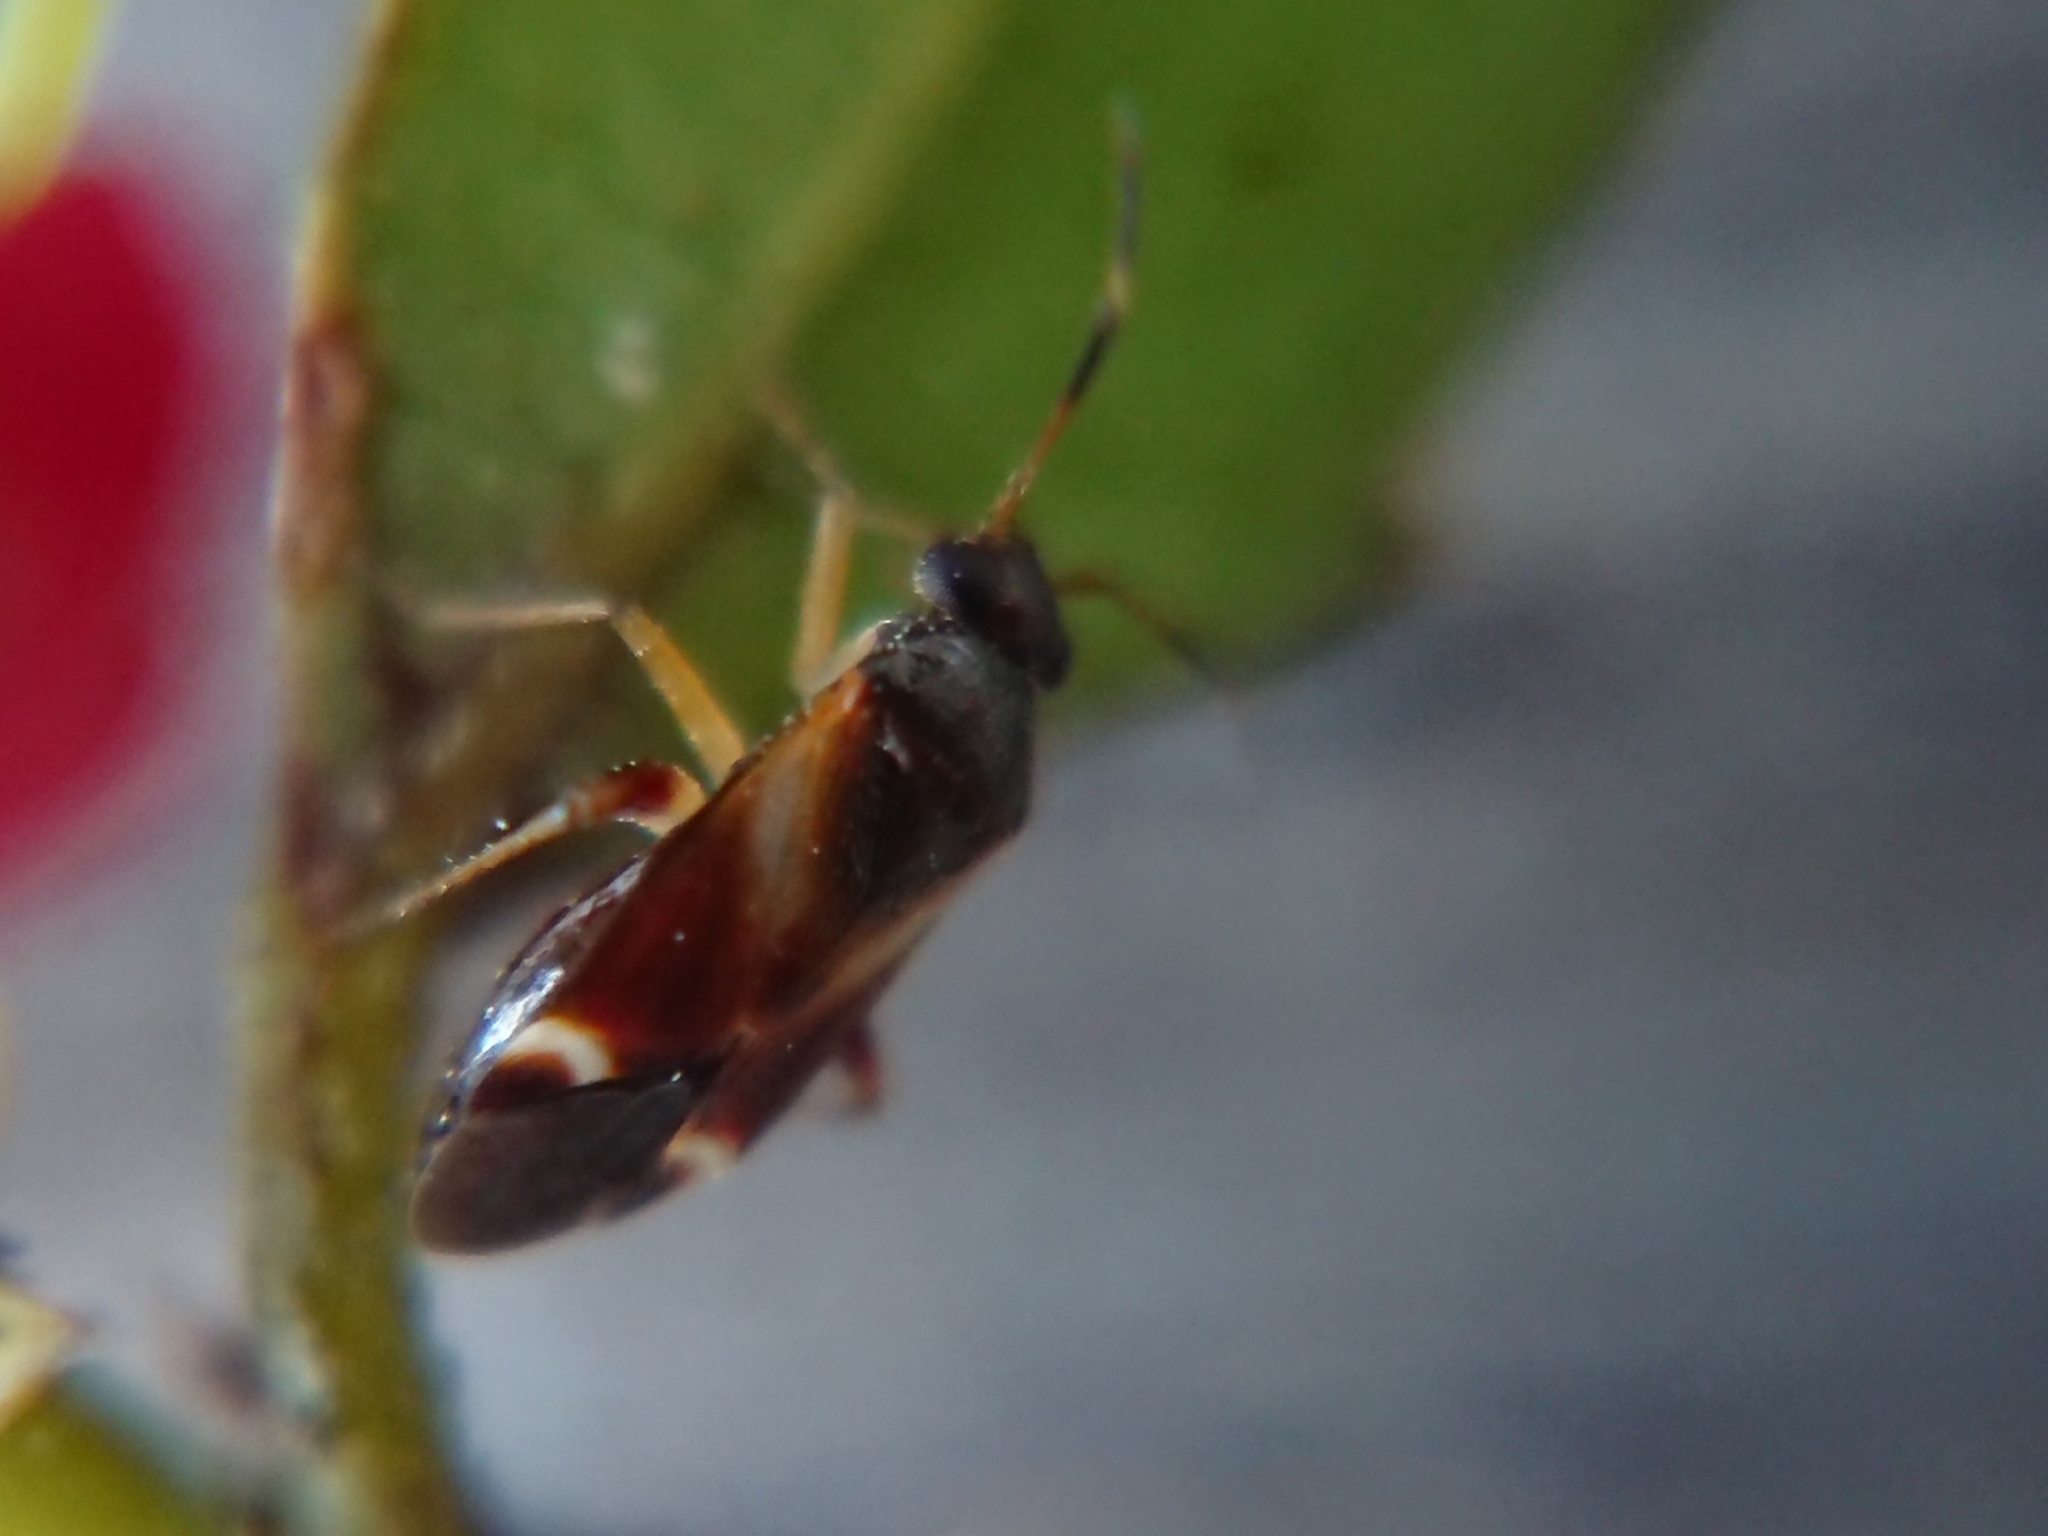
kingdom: Animalia
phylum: Arthropoda
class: Insecta
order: Hemiptera
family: Miridae
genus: Ausejanus
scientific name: Ausejanus albisignatus
